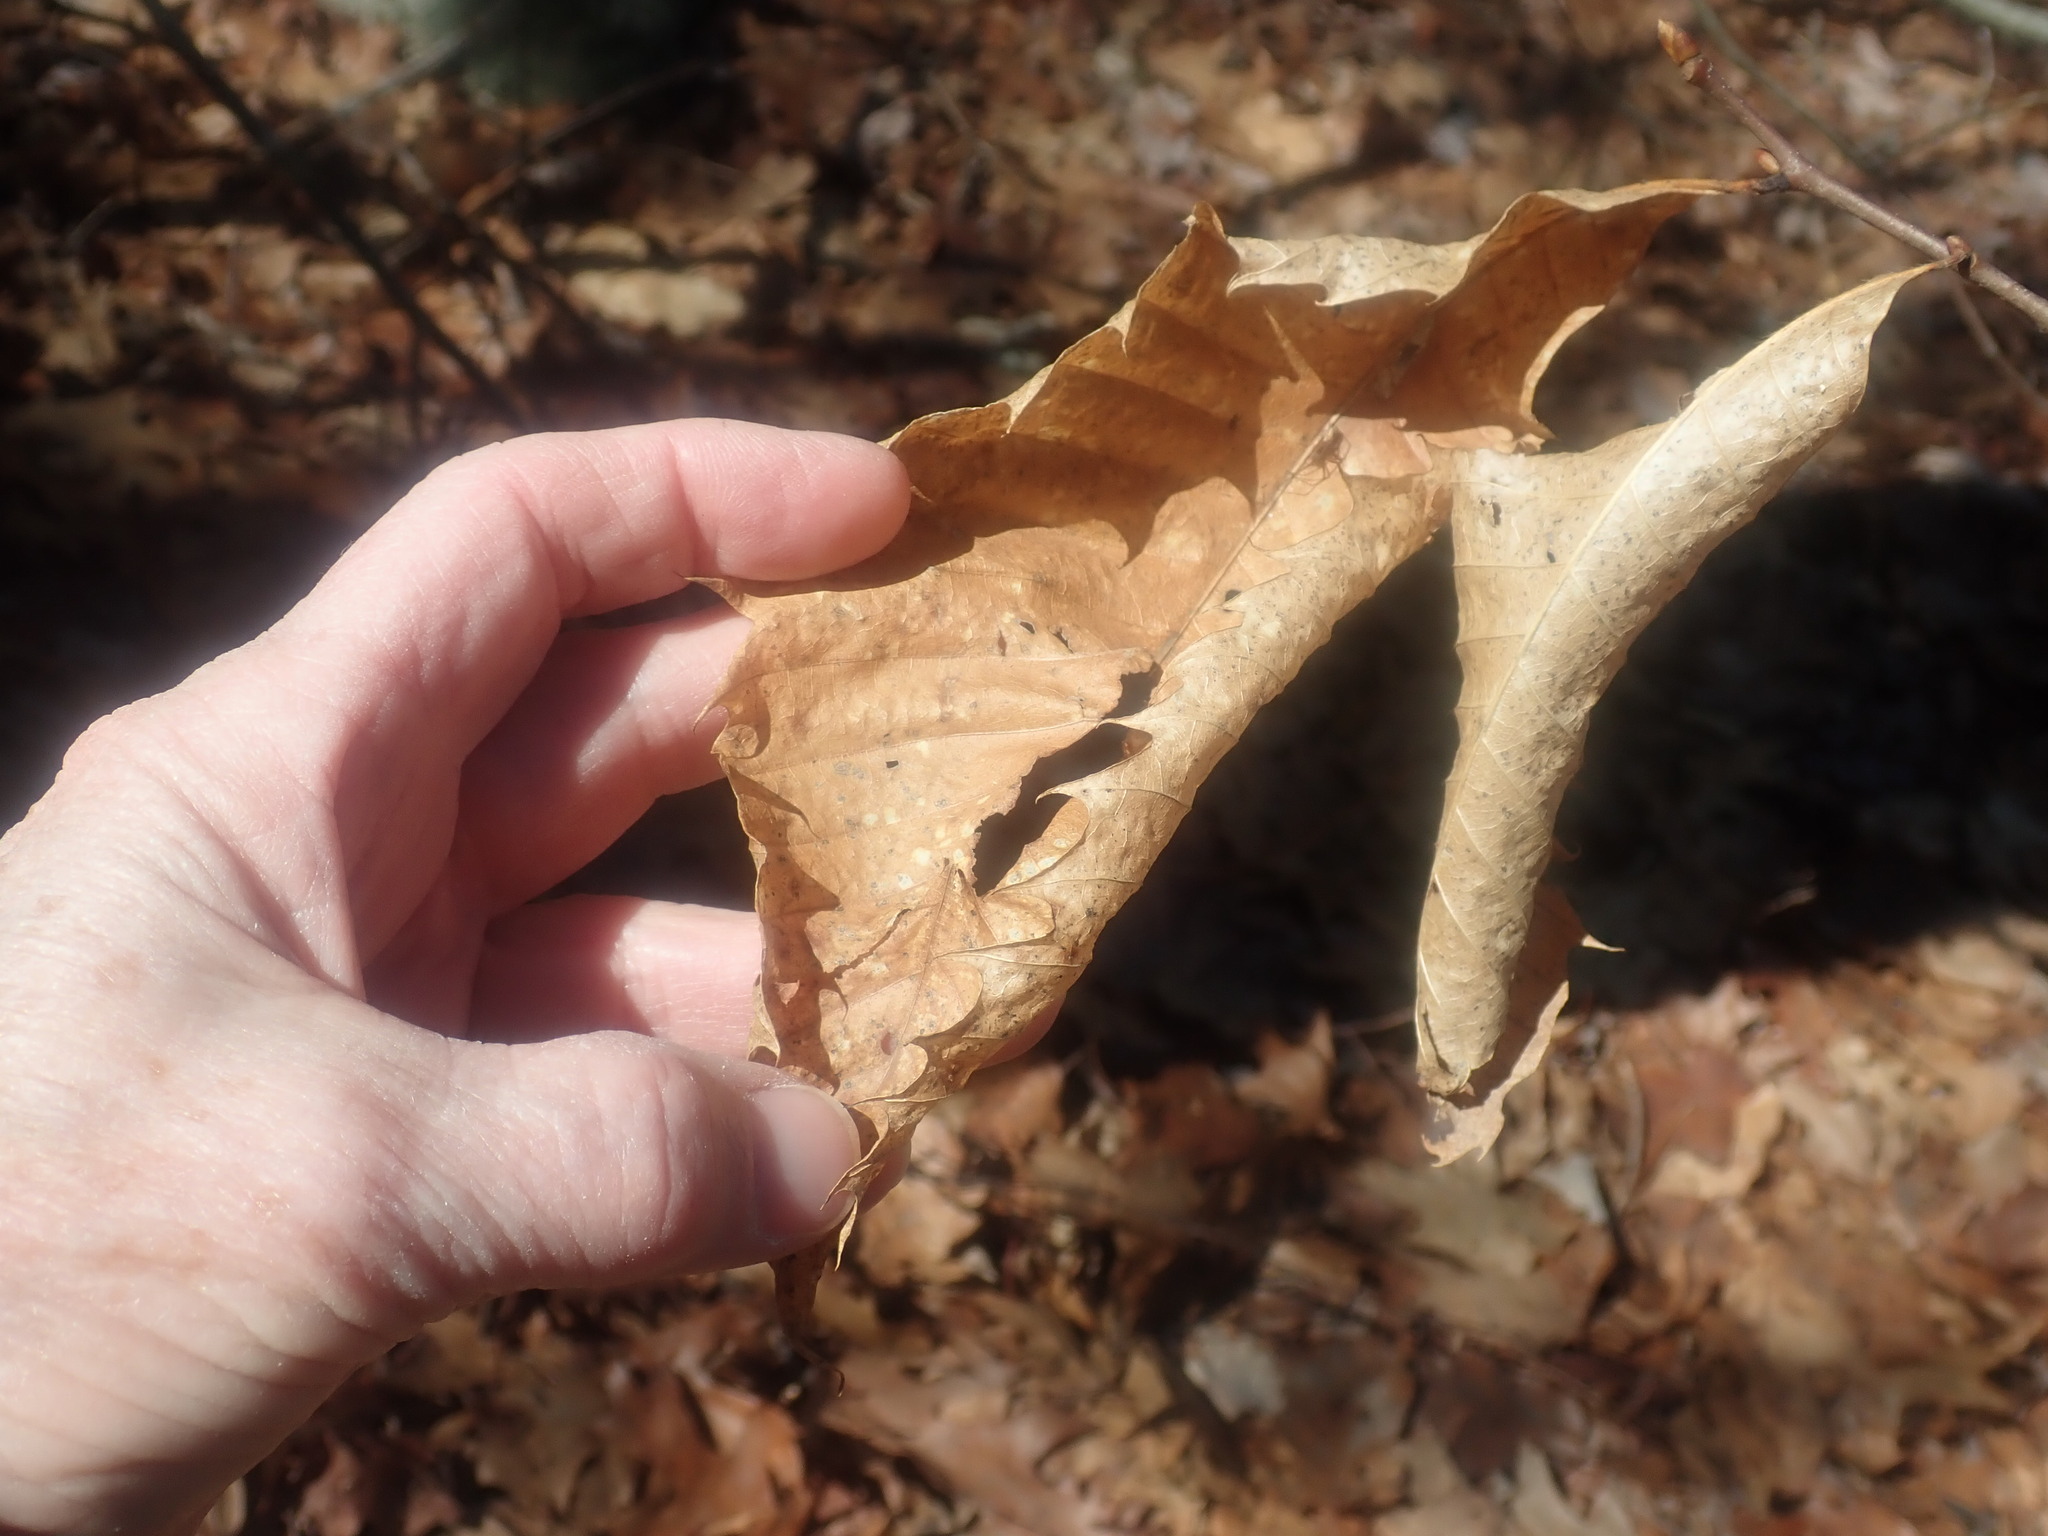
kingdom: Plantae
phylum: Tracheophyta
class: Magnoliopsida
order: Fagales
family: Fagaceae
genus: Castanea
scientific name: Castanea dentata
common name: American chestnut
